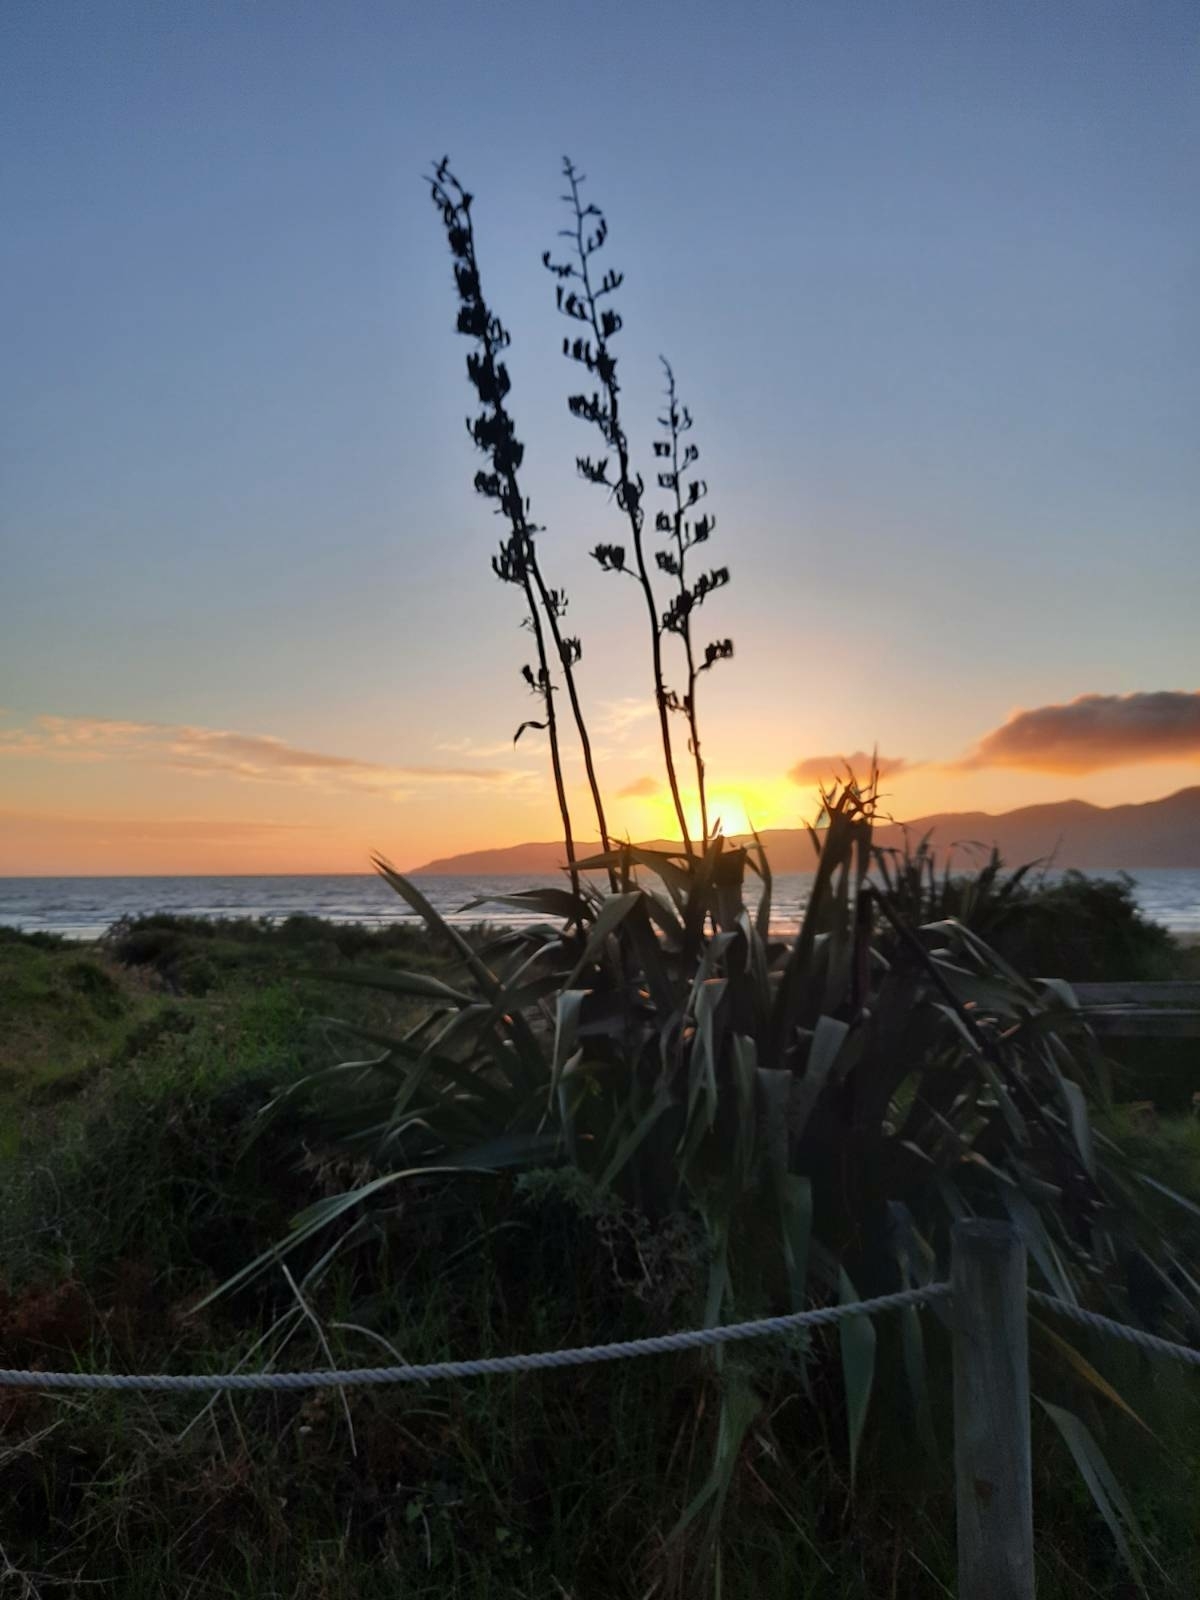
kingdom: Plantae
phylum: Tracheophyta
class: Liliopsida
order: Asparagales
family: Asphodelaceae
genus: Phormium
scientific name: Phormium tenax
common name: New zealand flax
